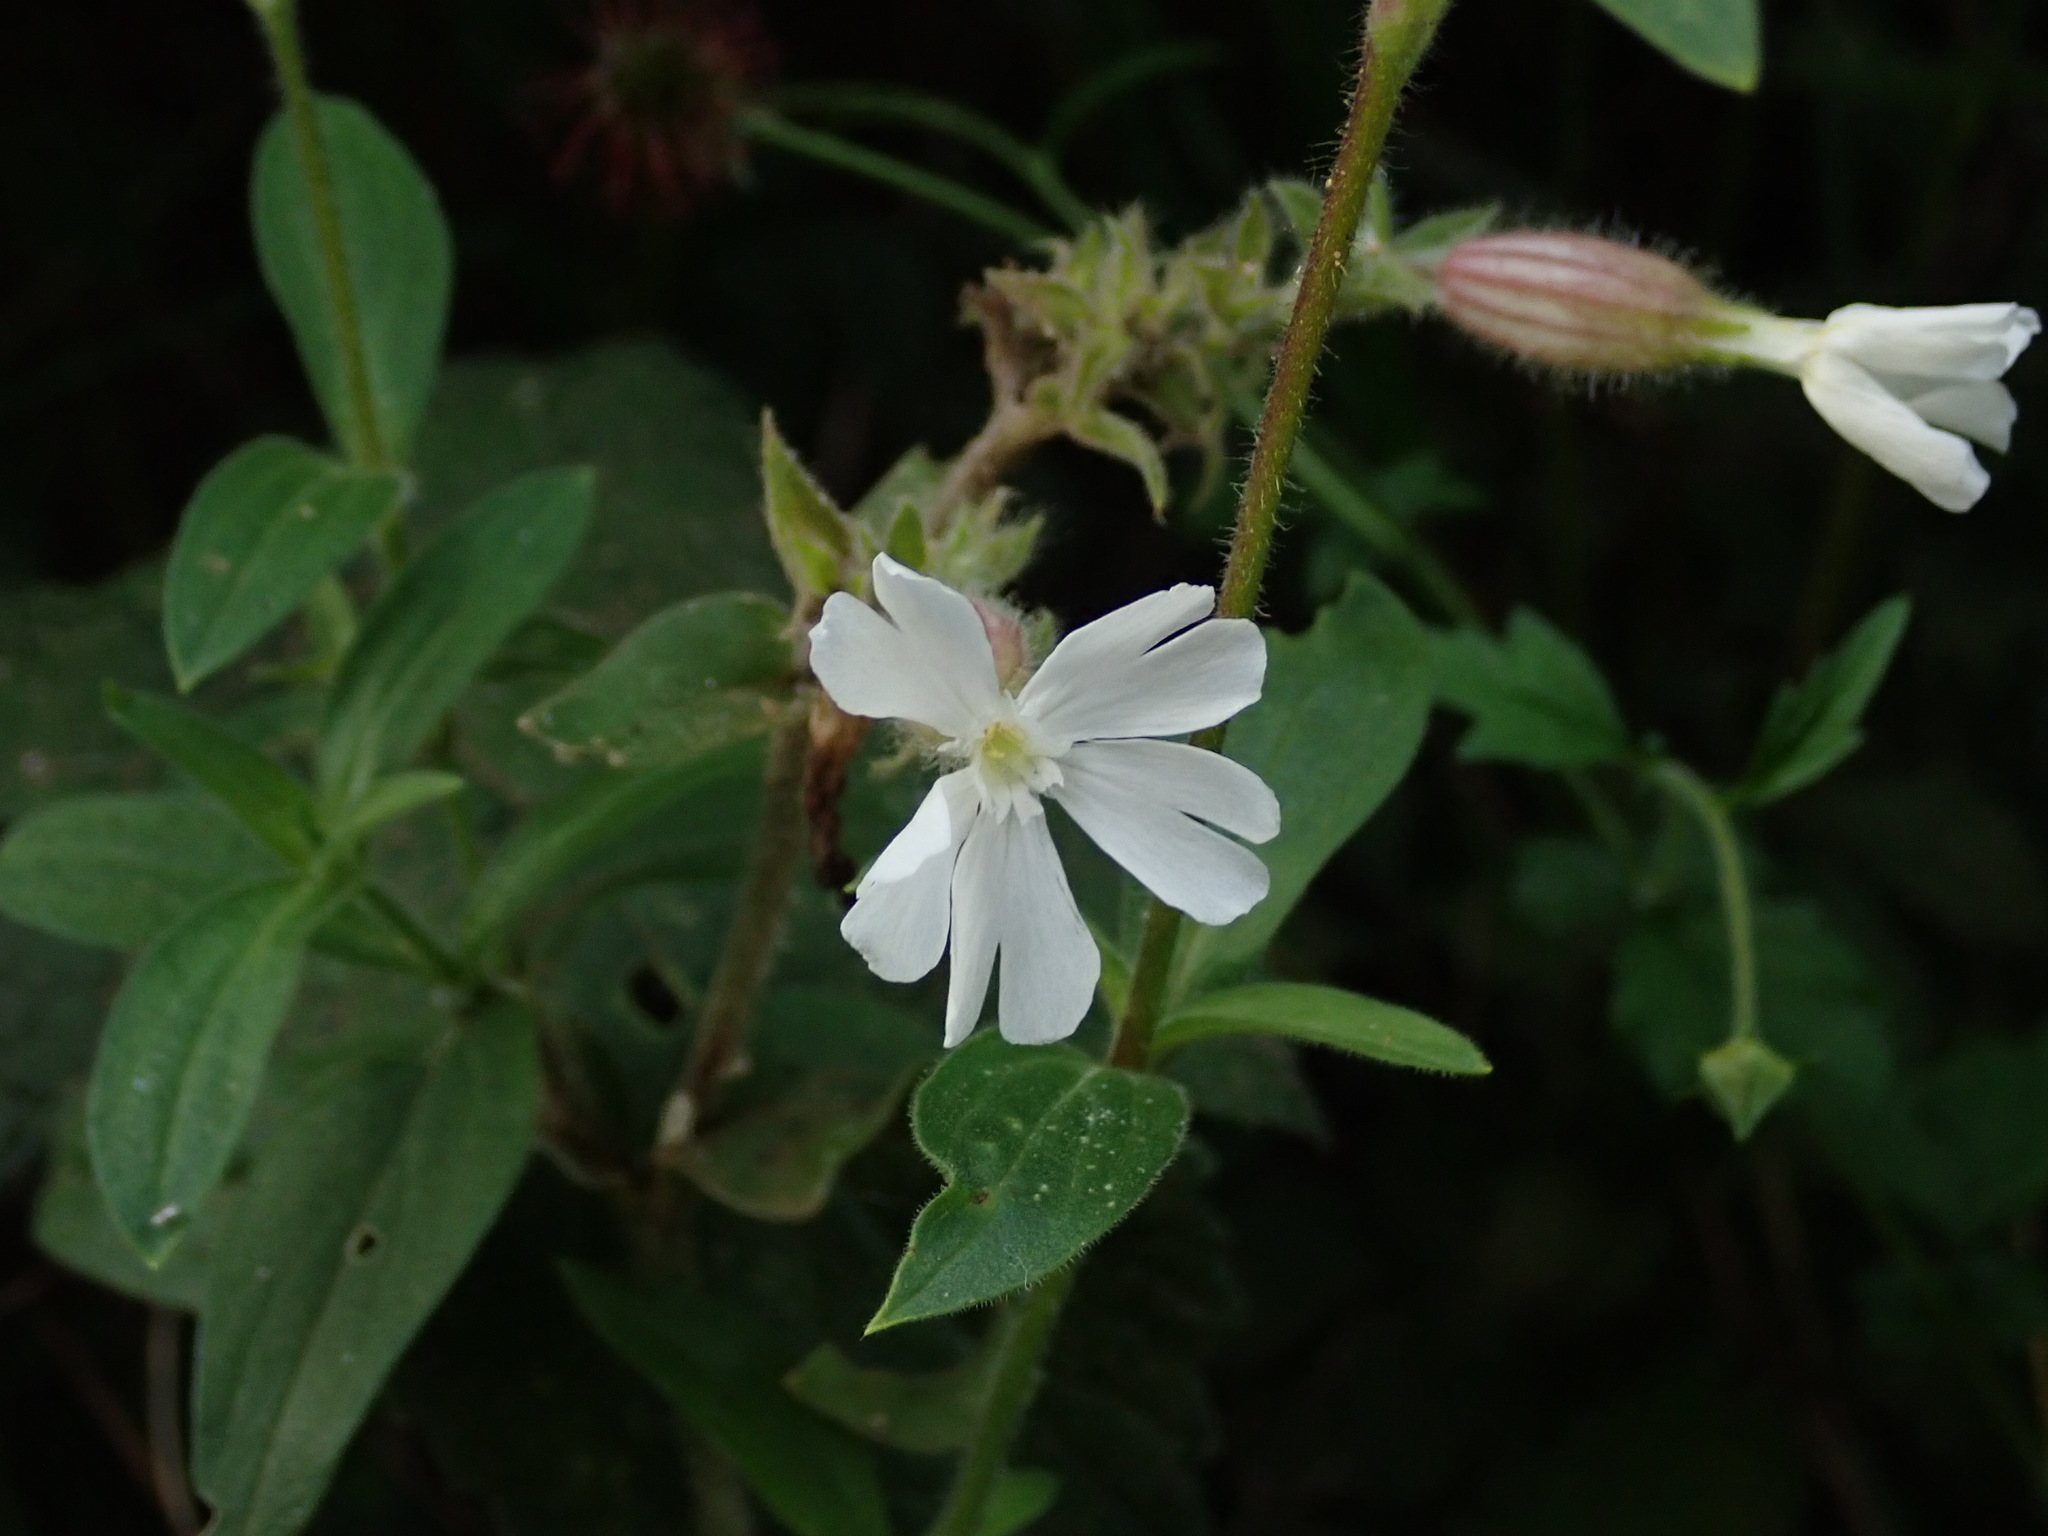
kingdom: Plantae
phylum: Tracheophyta
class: Magnoliopsida
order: Caryophyllales
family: Caryophyllaceae
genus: Silene
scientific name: Silene latifolia
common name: White campion
